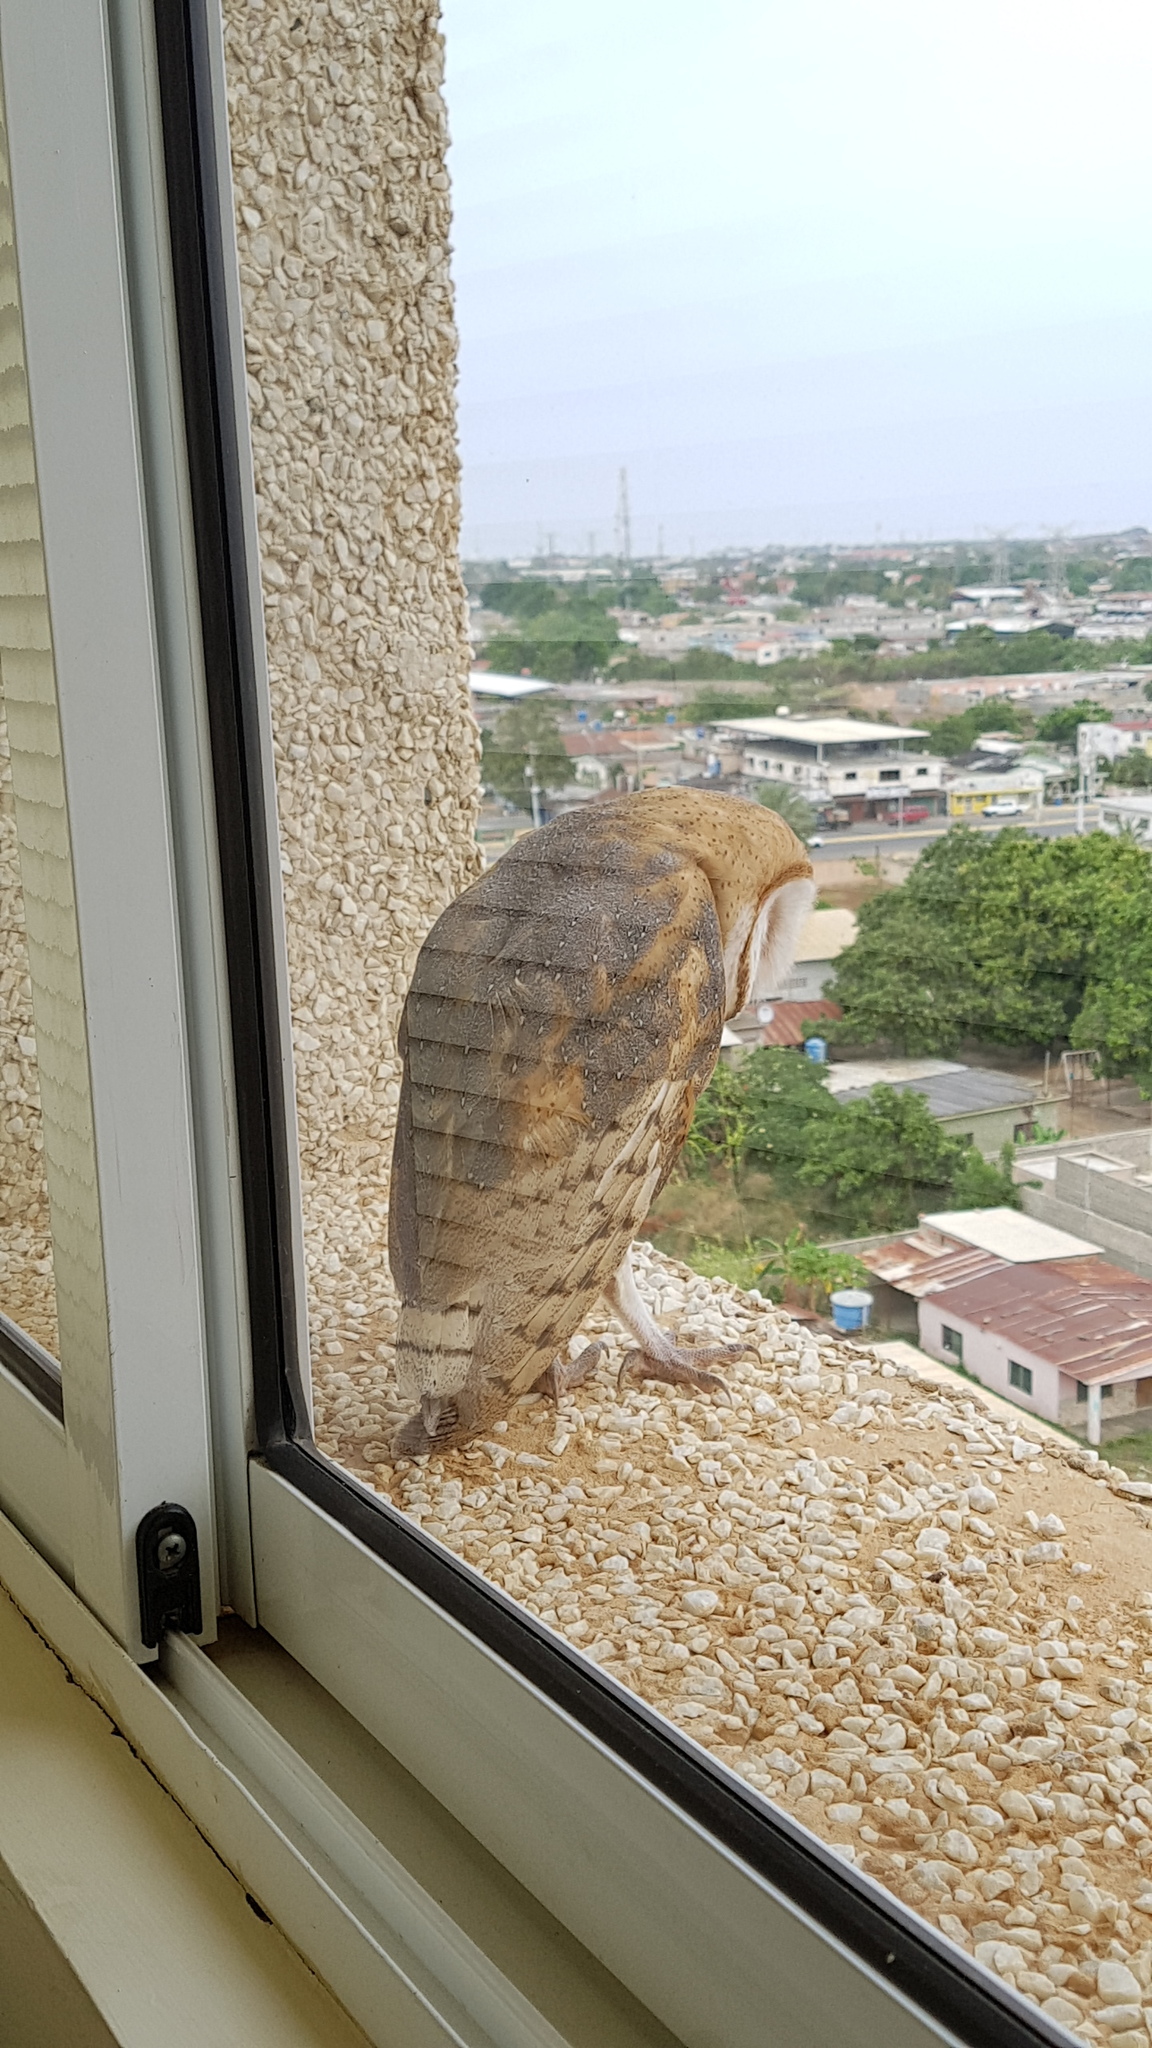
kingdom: Animalia
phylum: Chordata
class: Aves
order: Strigiformes
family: Tytonidae
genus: Tyto
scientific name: Tyto alba
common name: Barn owl
